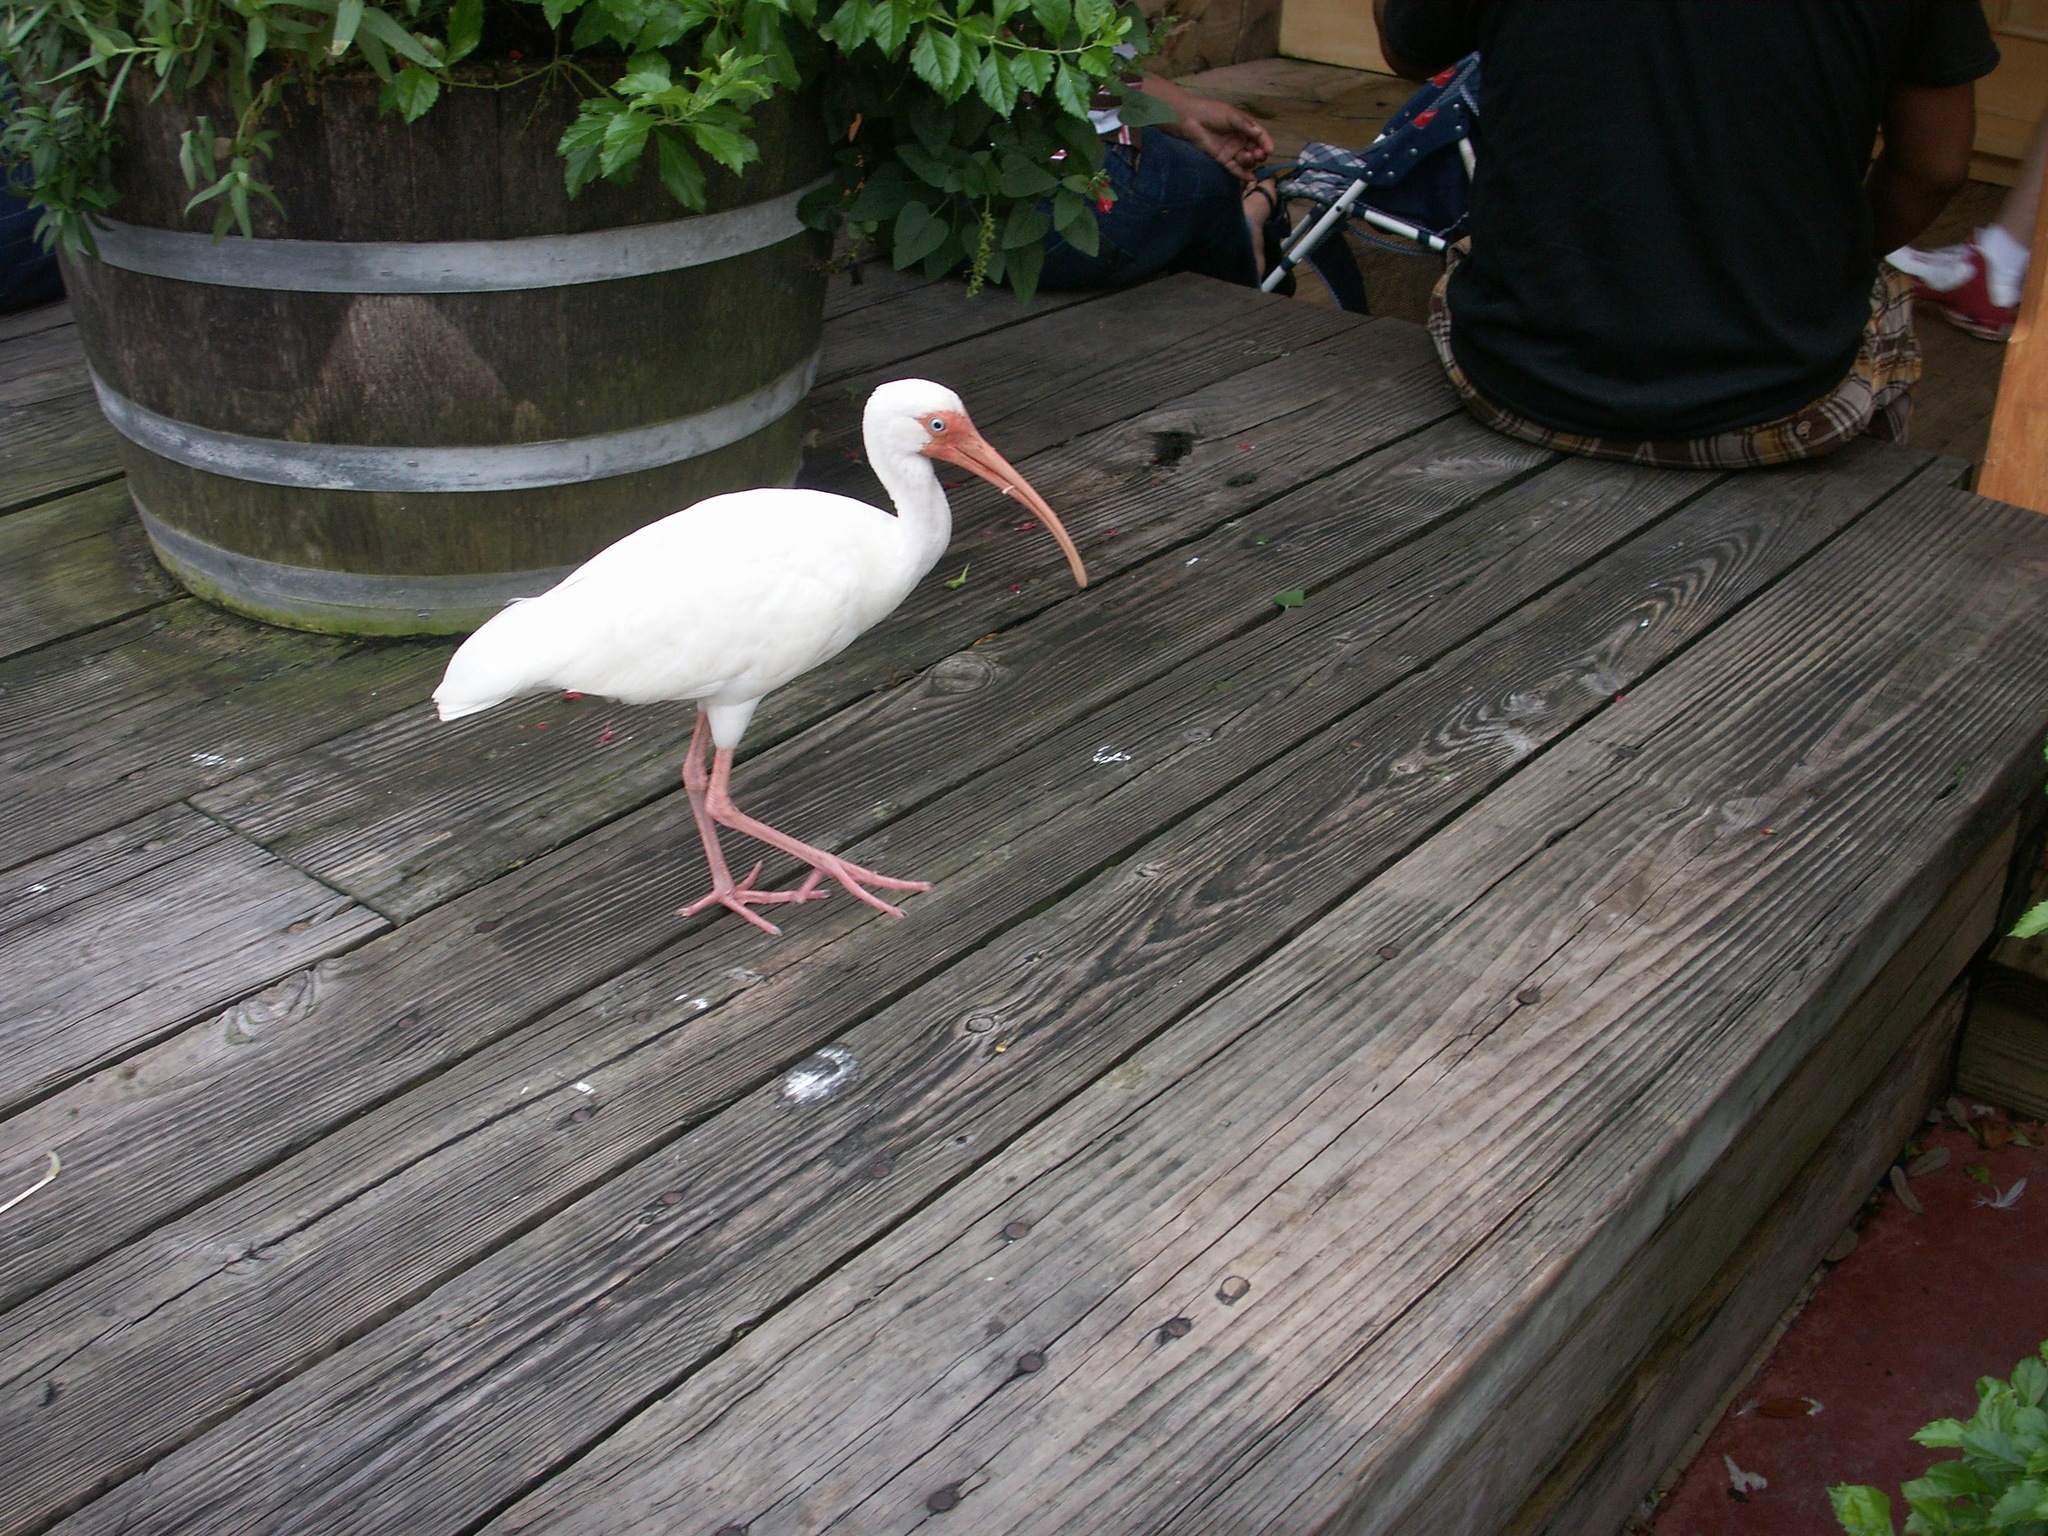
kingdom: Animalia
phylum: Chordata
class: Aves
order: Pelecaniformes
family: Threskiornithidae
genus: Eudocimus
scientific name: Eudocimus albus
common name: White ibis
